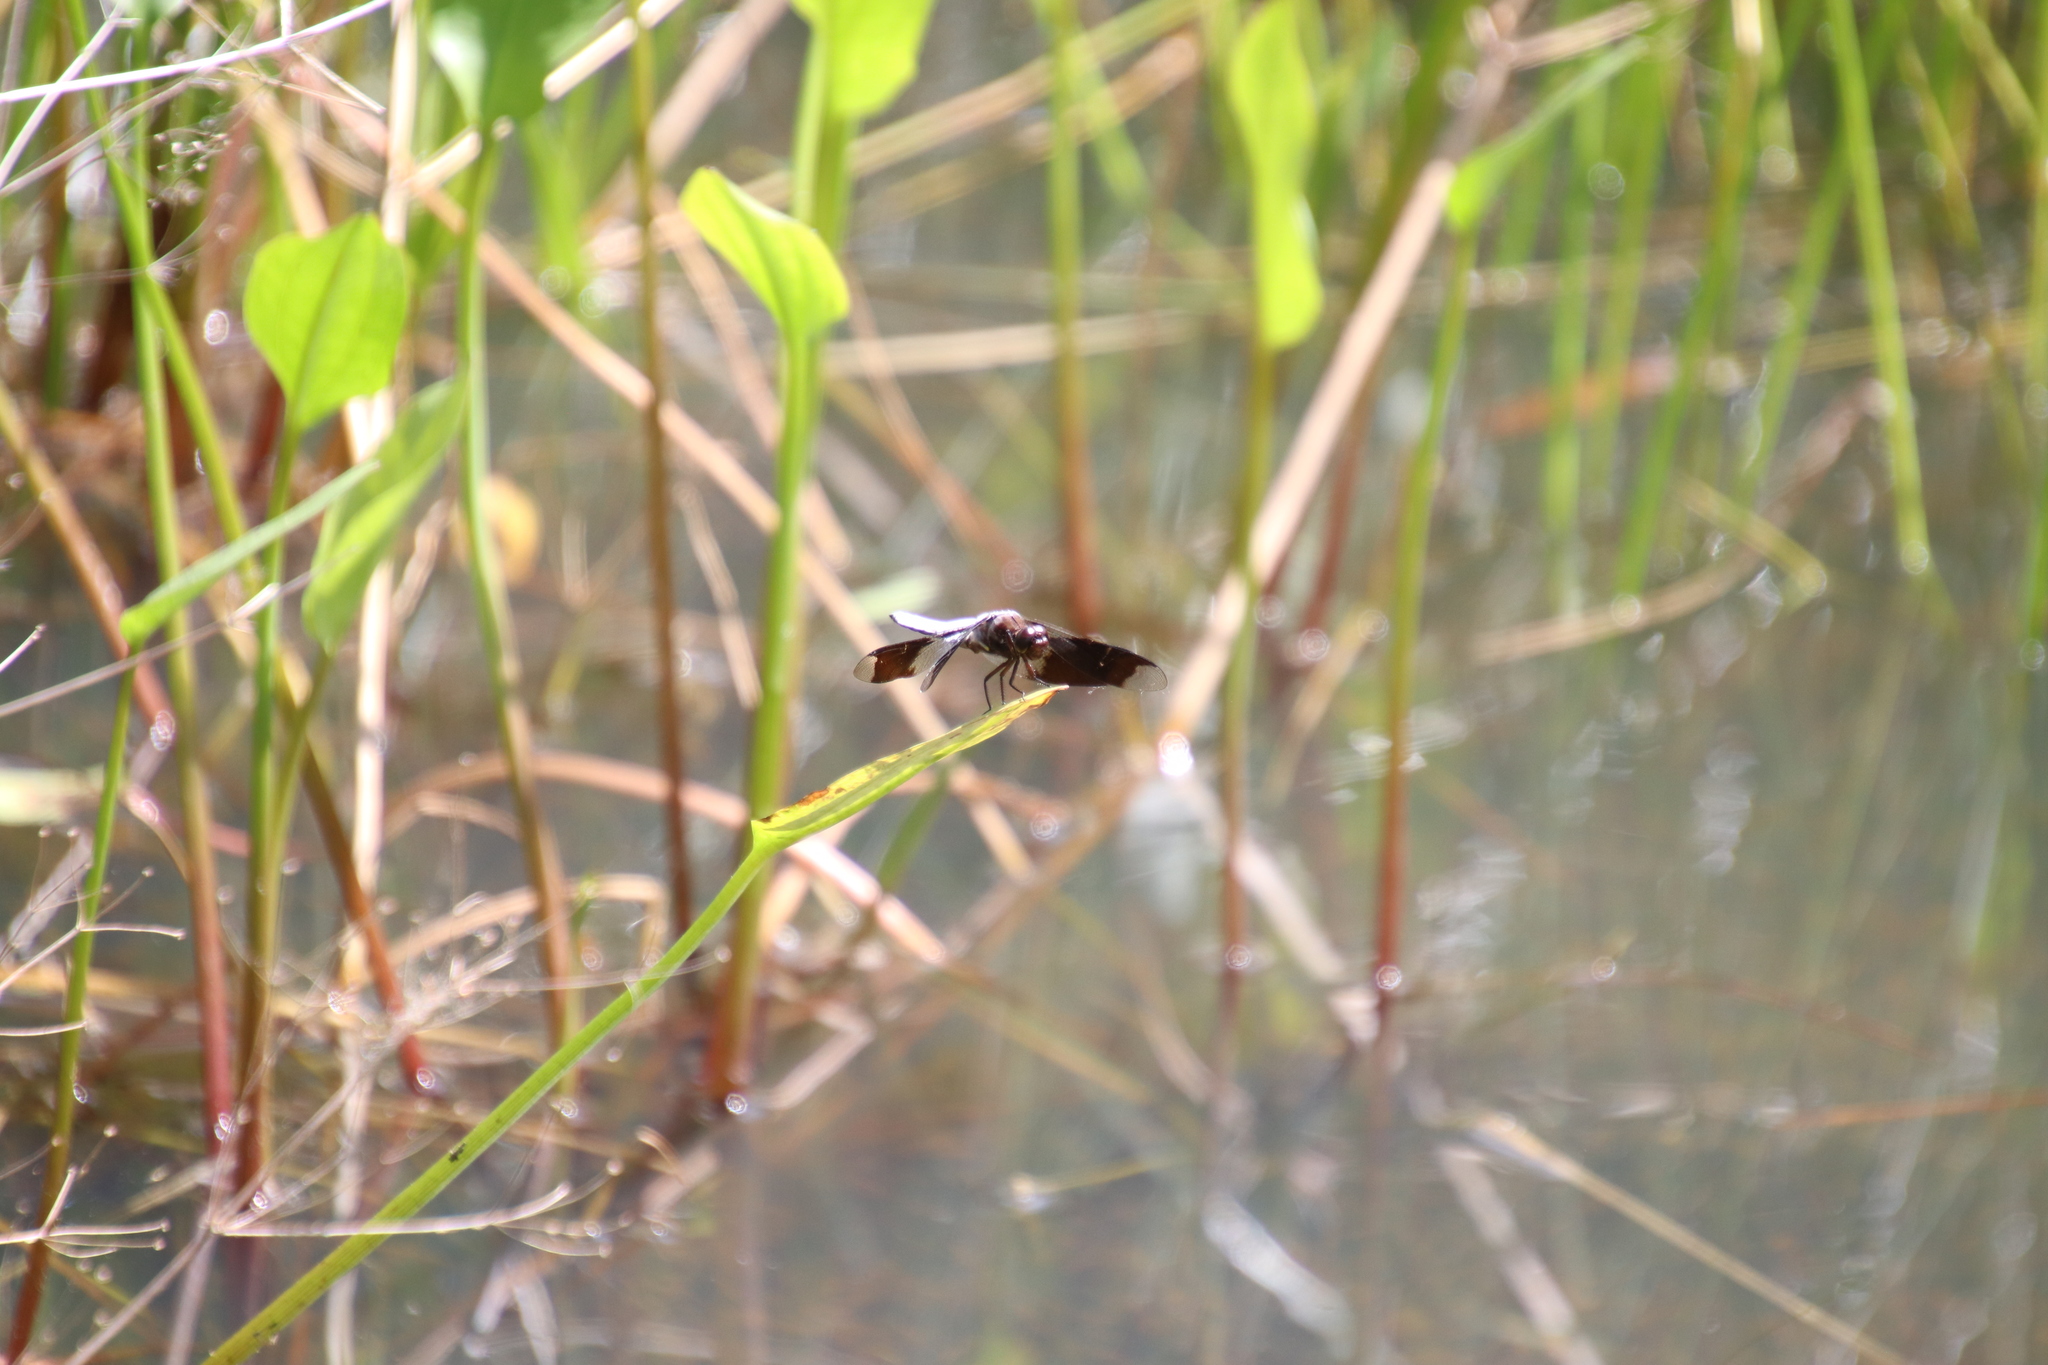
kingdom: Animalia
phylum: Arthropoda
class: Insecta
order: Odonata
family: Libellulidae
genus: Plathemis
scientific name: Plathemis lydia
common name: Common whitetail
